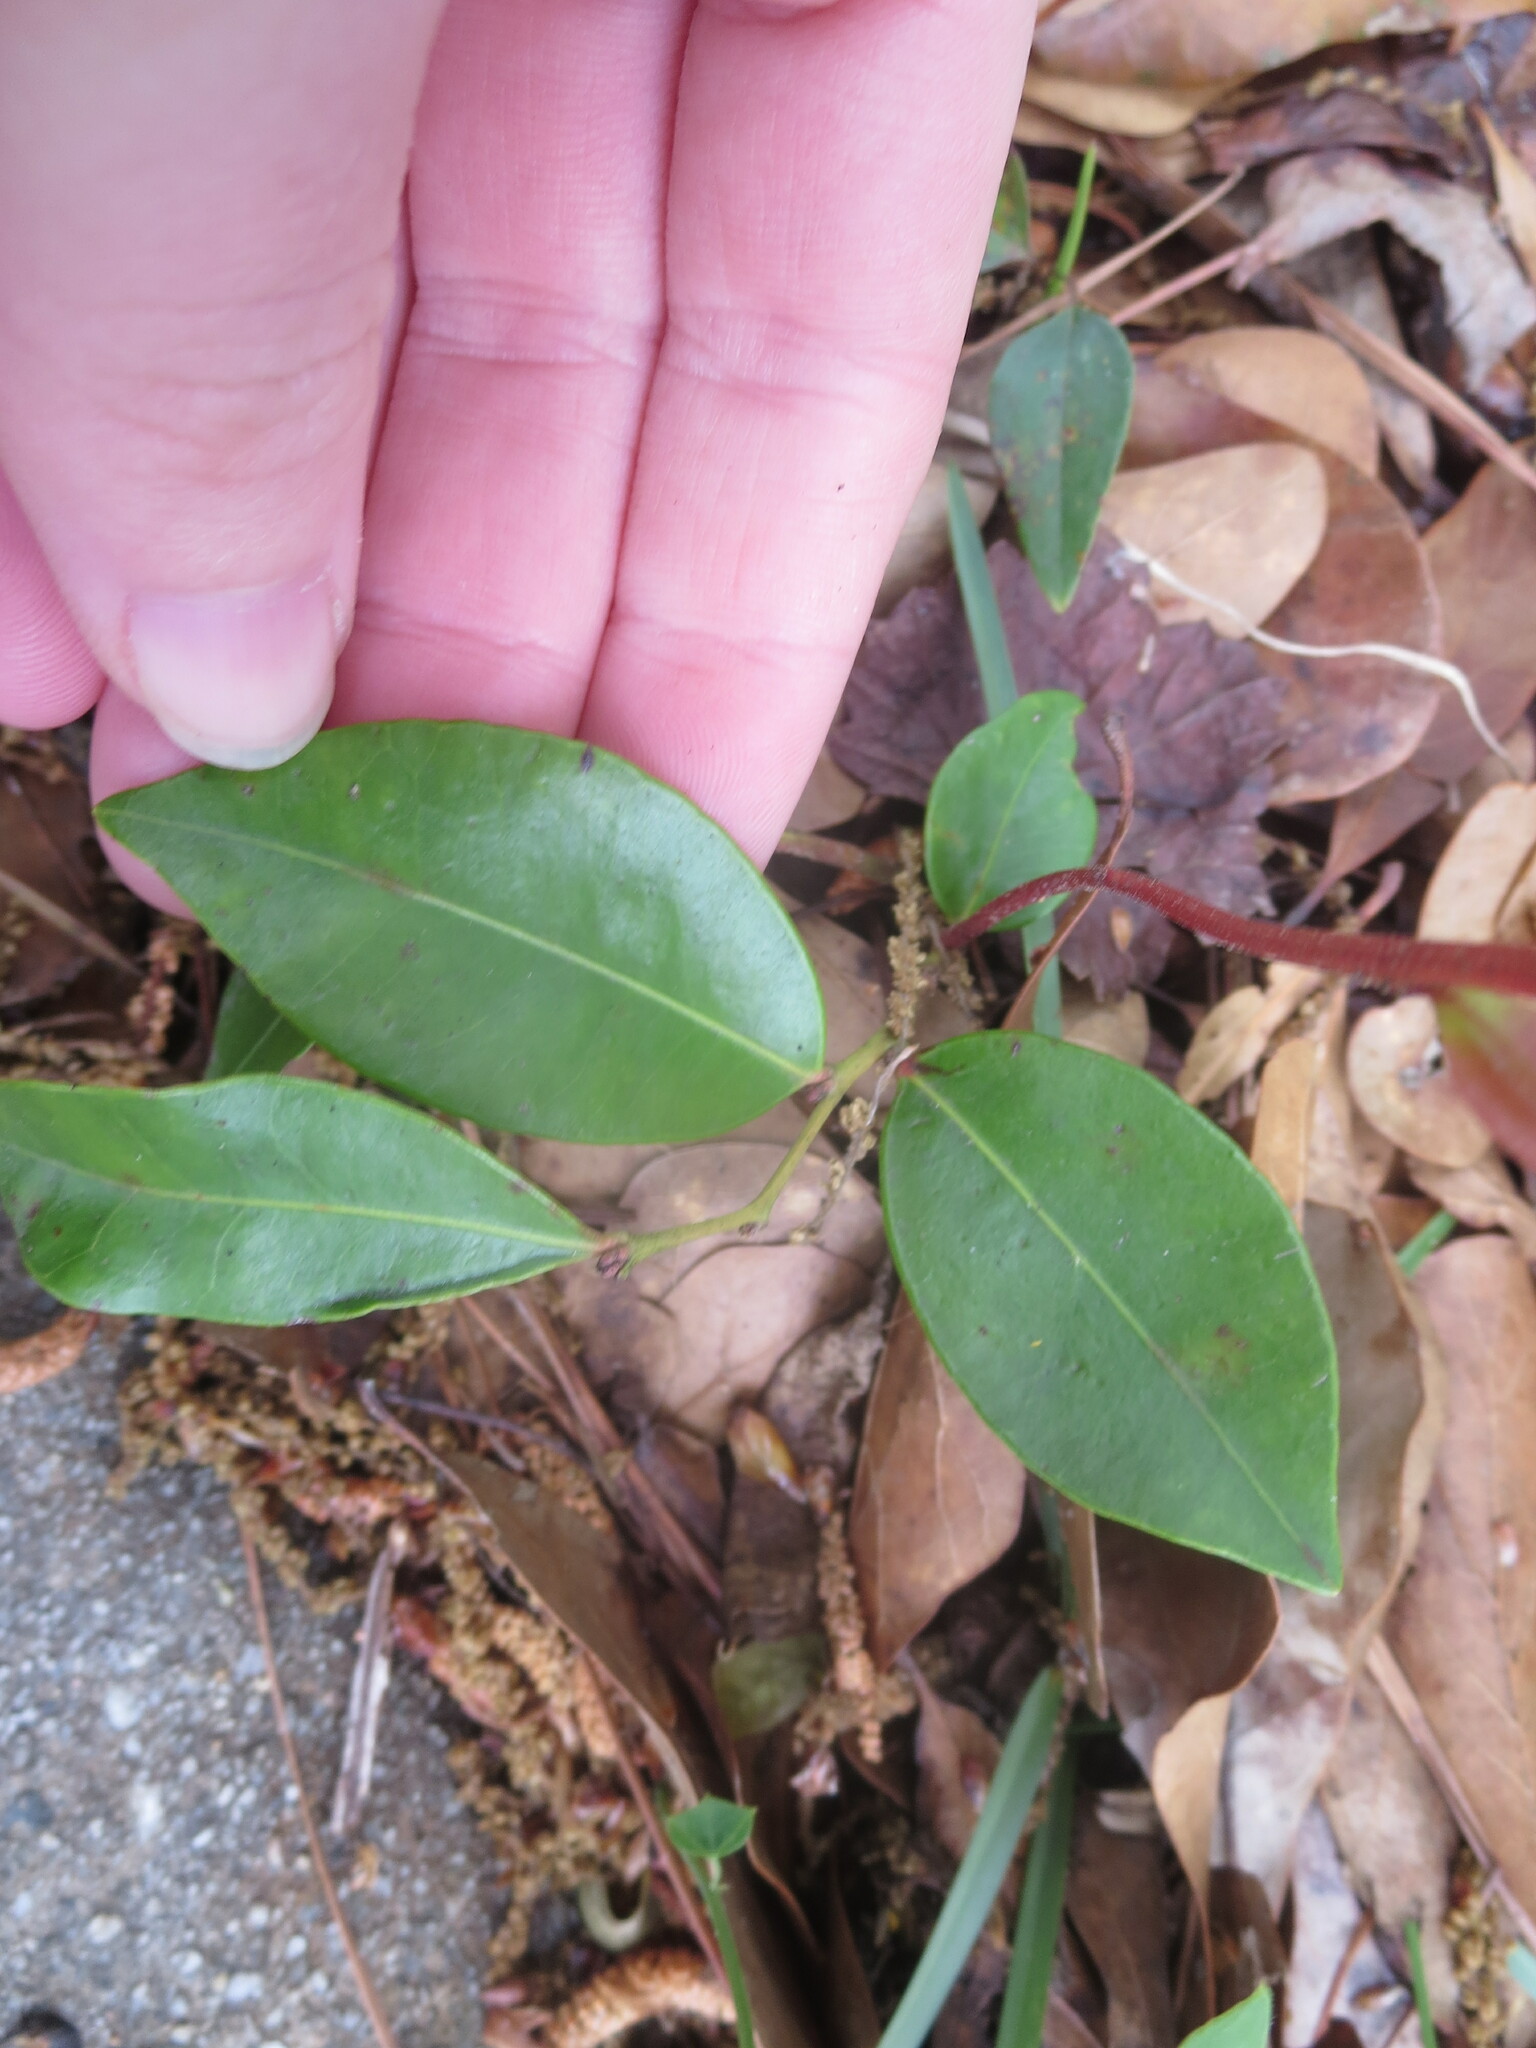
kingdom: Plantae
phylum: Tracheophyta
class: Magnoliopsida
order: Ericales
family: Ericaceae
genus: Lyonia
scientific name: Lyonia lucida
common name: Fetterbush
